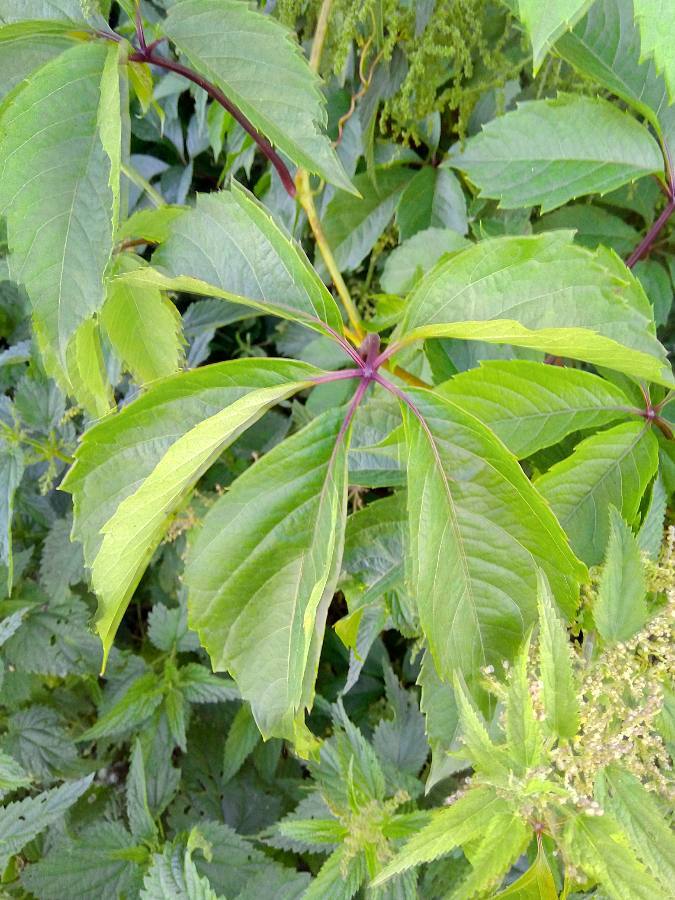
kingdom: Plantae
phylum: Tracheophyta
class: Magnoliopsida
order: Vitales
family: Vitaceae
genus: Parthenocissus
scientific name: Parthenocissus inserta
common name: False virginia-creeper
